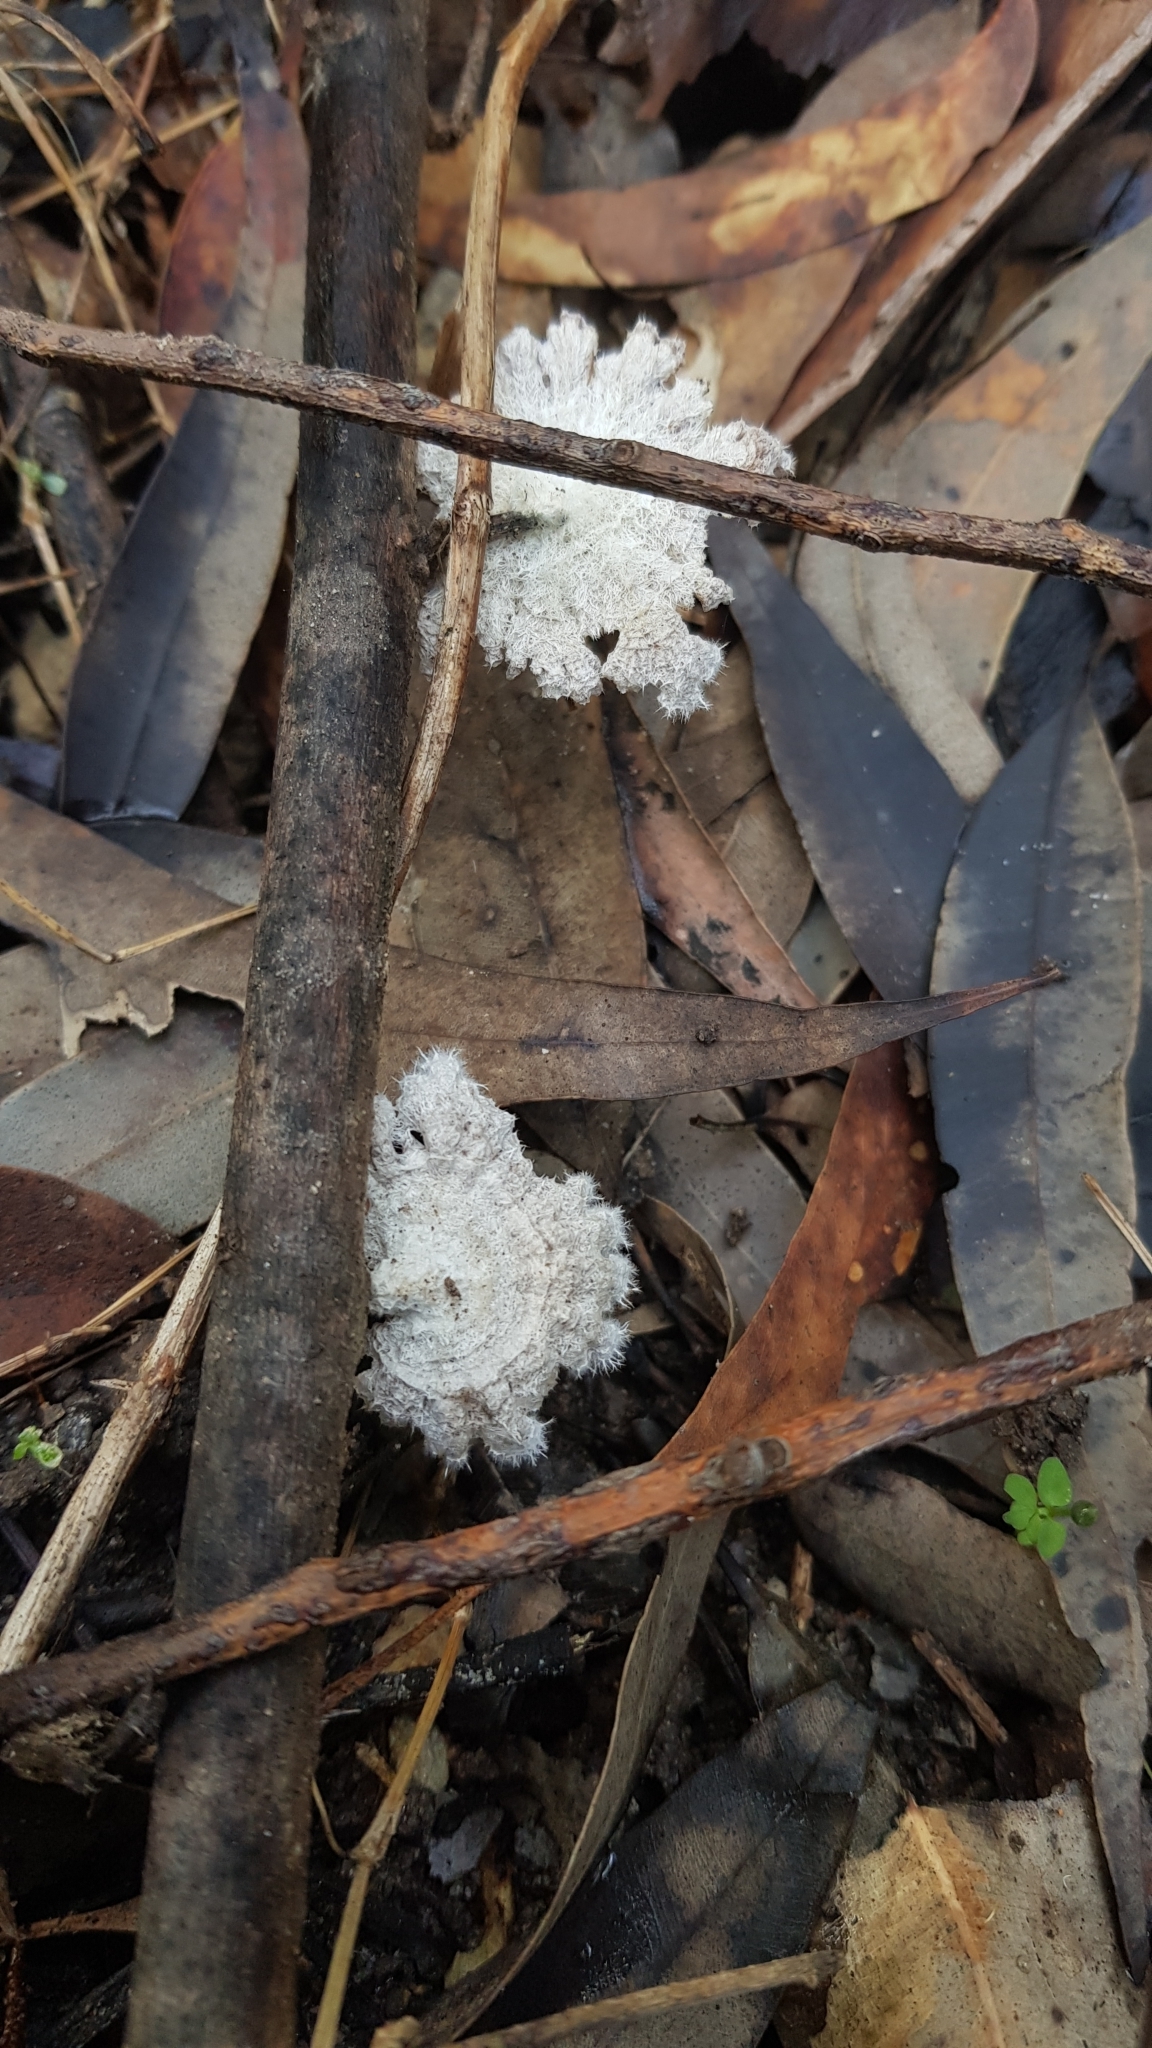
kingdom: Fungi
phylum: Basidiomycota
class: Agaricomycetes
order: Agaricales
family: Schizophyllaceae
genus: Schizophyllum
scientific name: Schizophyllum commune
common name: Common porecrust
